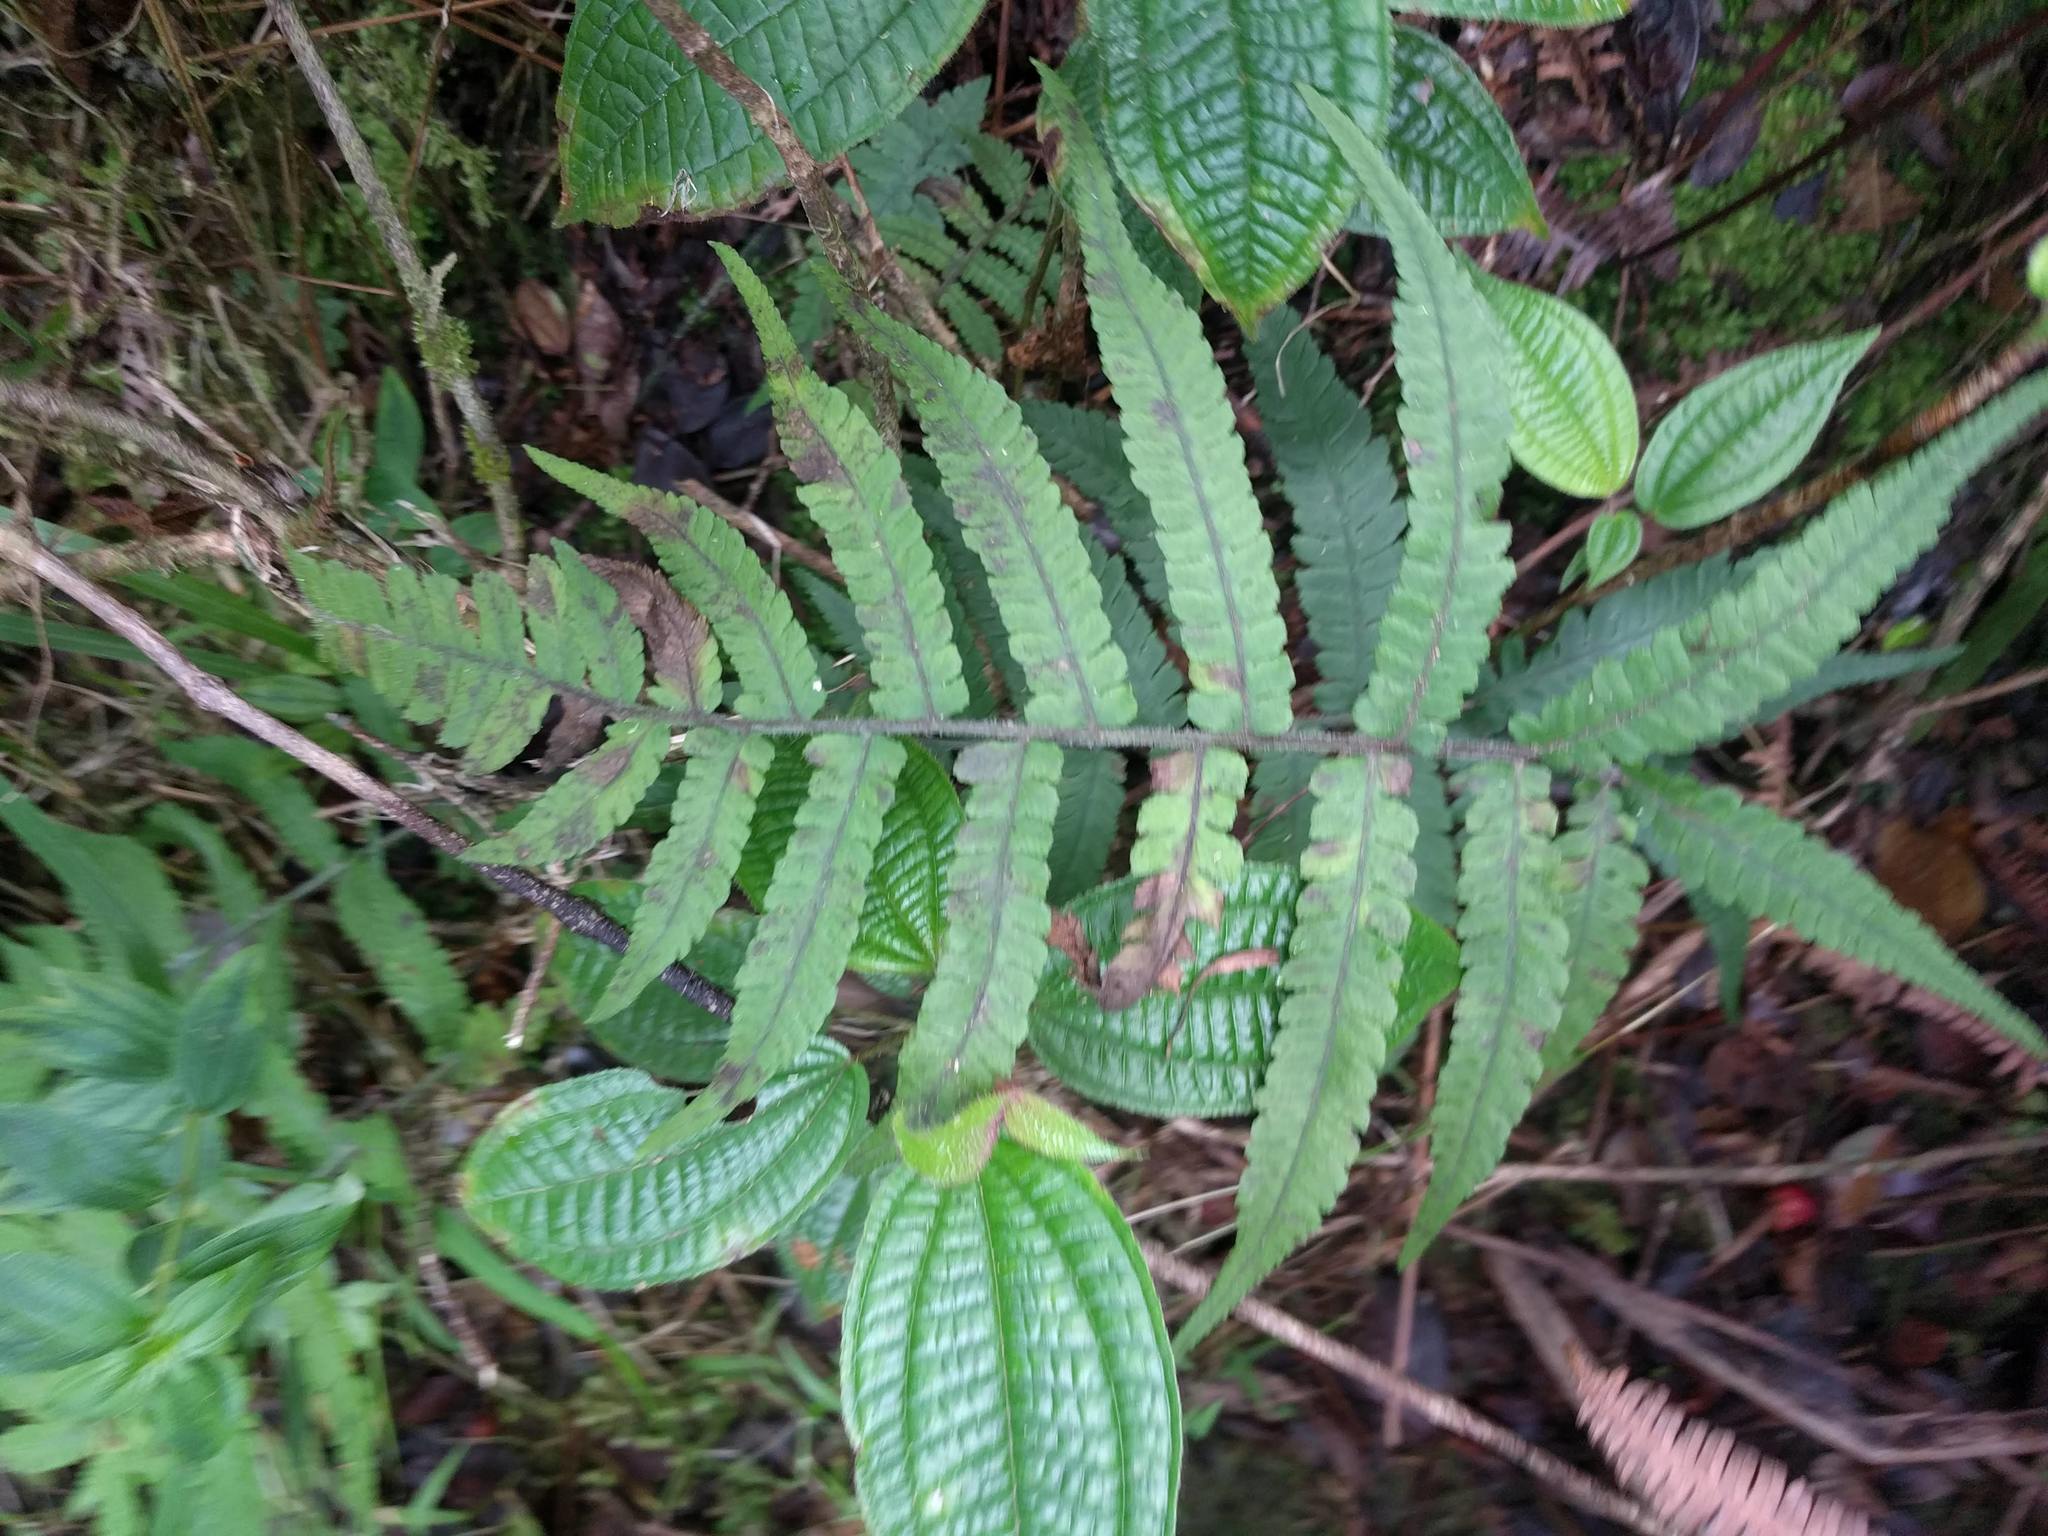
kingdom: Plantae
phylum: Tracheophyta
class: Polypodiopsida
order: Polypodiales
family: Athyriaceae
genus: Deparia
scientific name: Deparia petersenii
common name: Japanese false spleenwort
